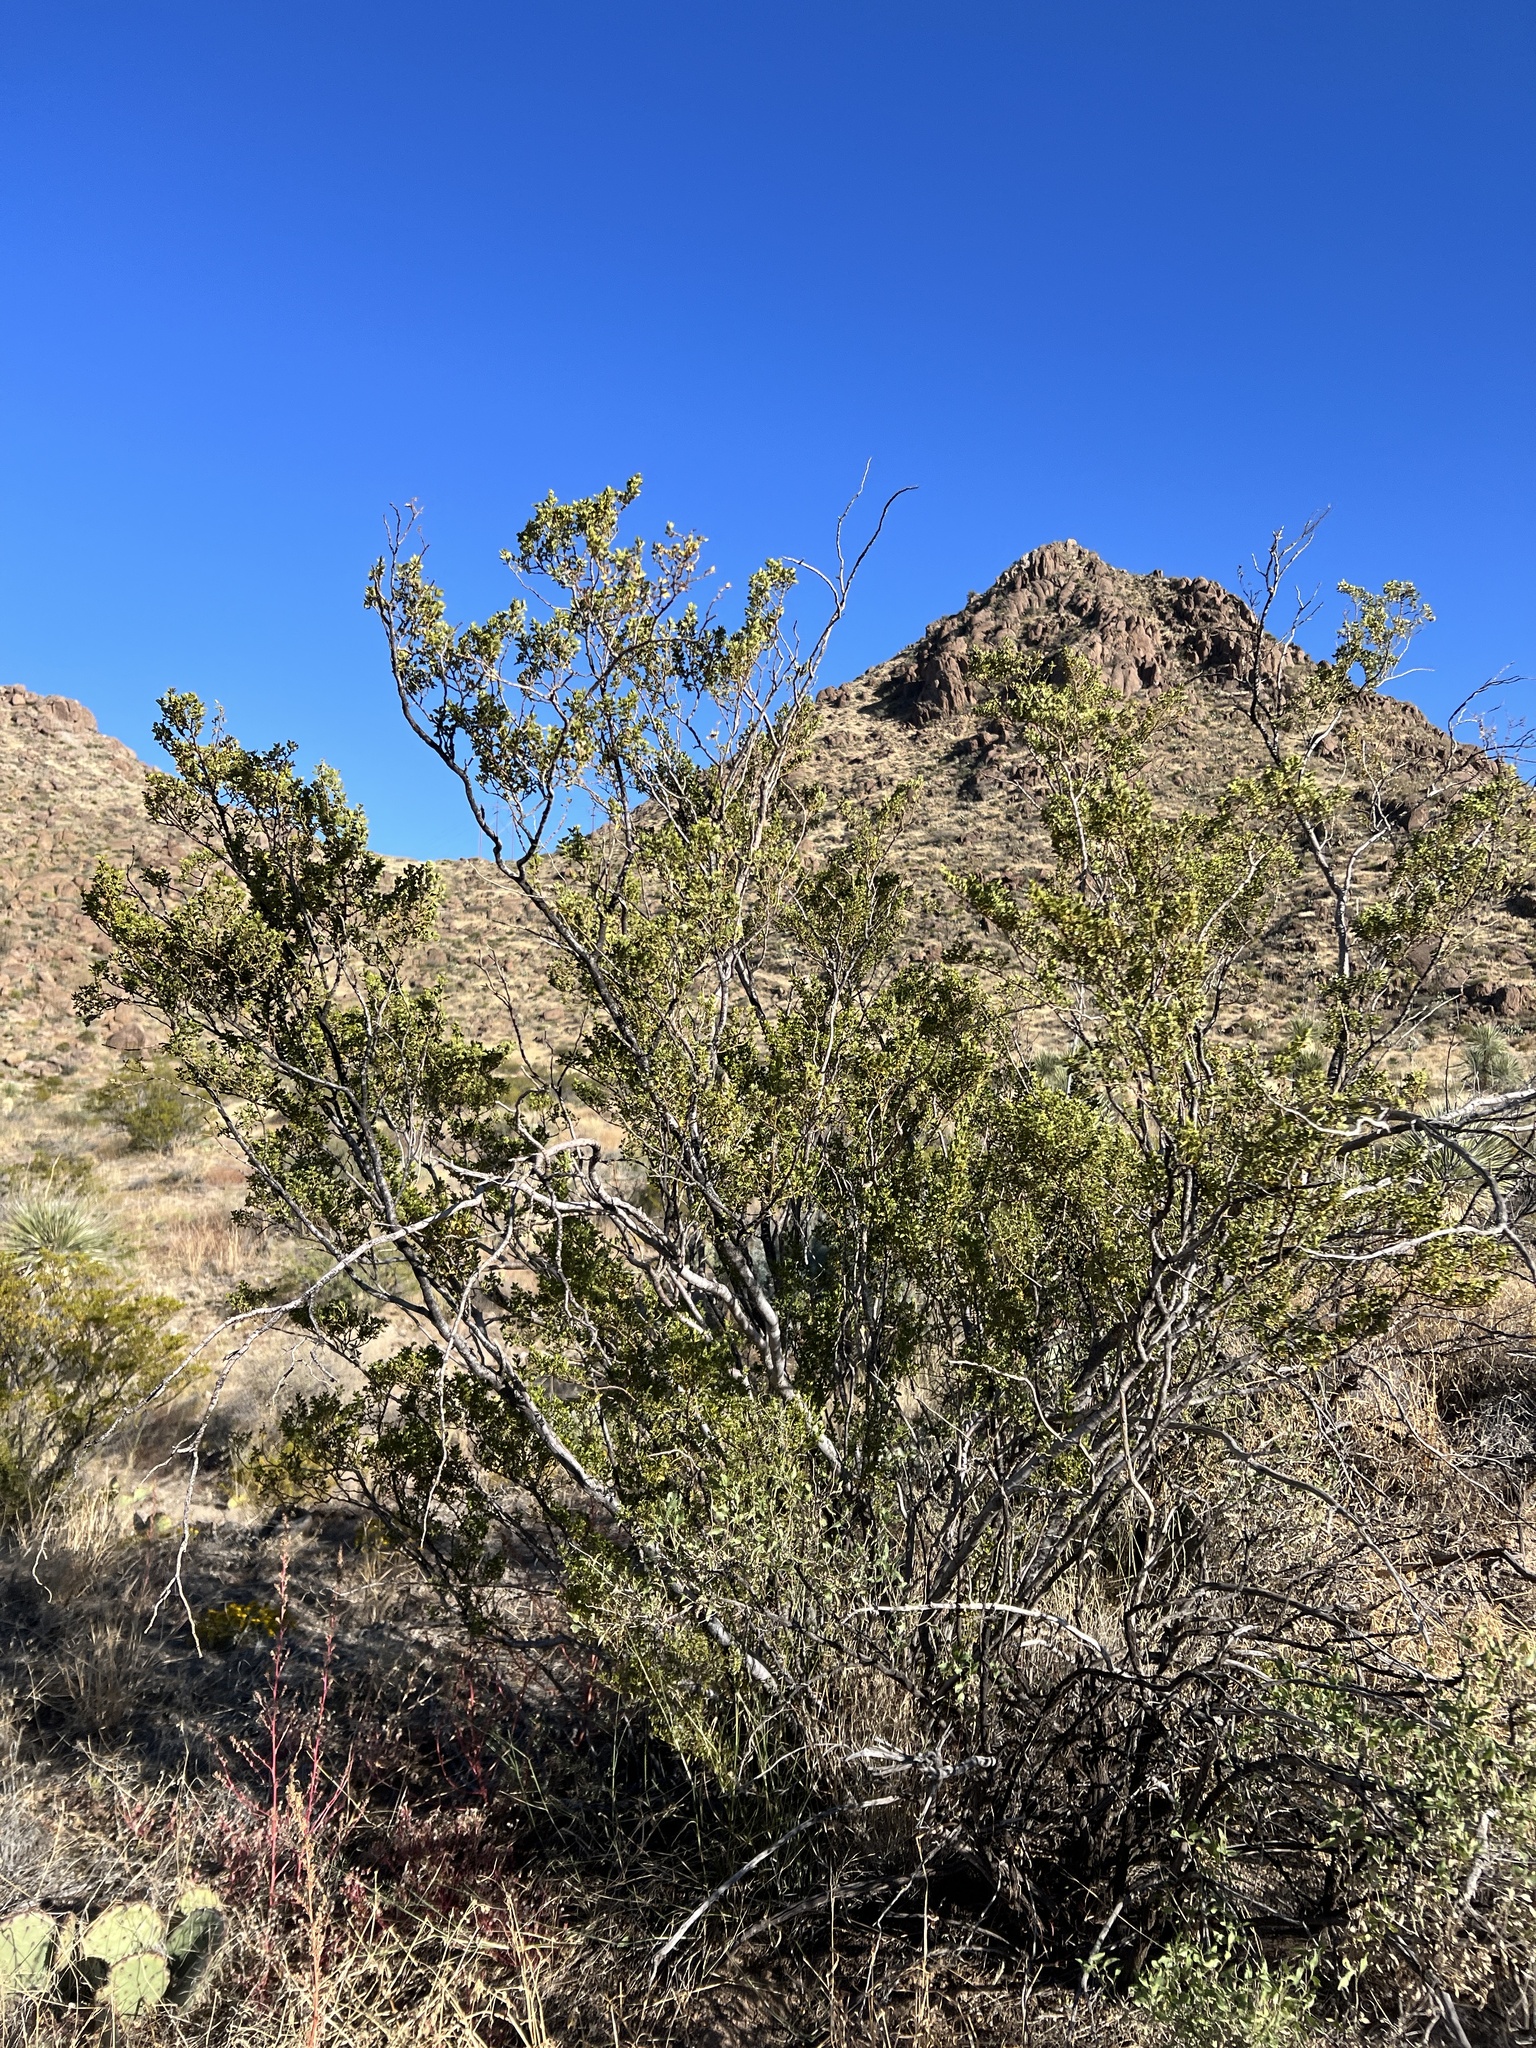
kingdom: Plantae
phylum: Tracheophyta
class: Magnoliopsida
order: Zygophyllales
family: Zygophyllaceae
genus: Larrea
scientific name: Larrea tridentata
